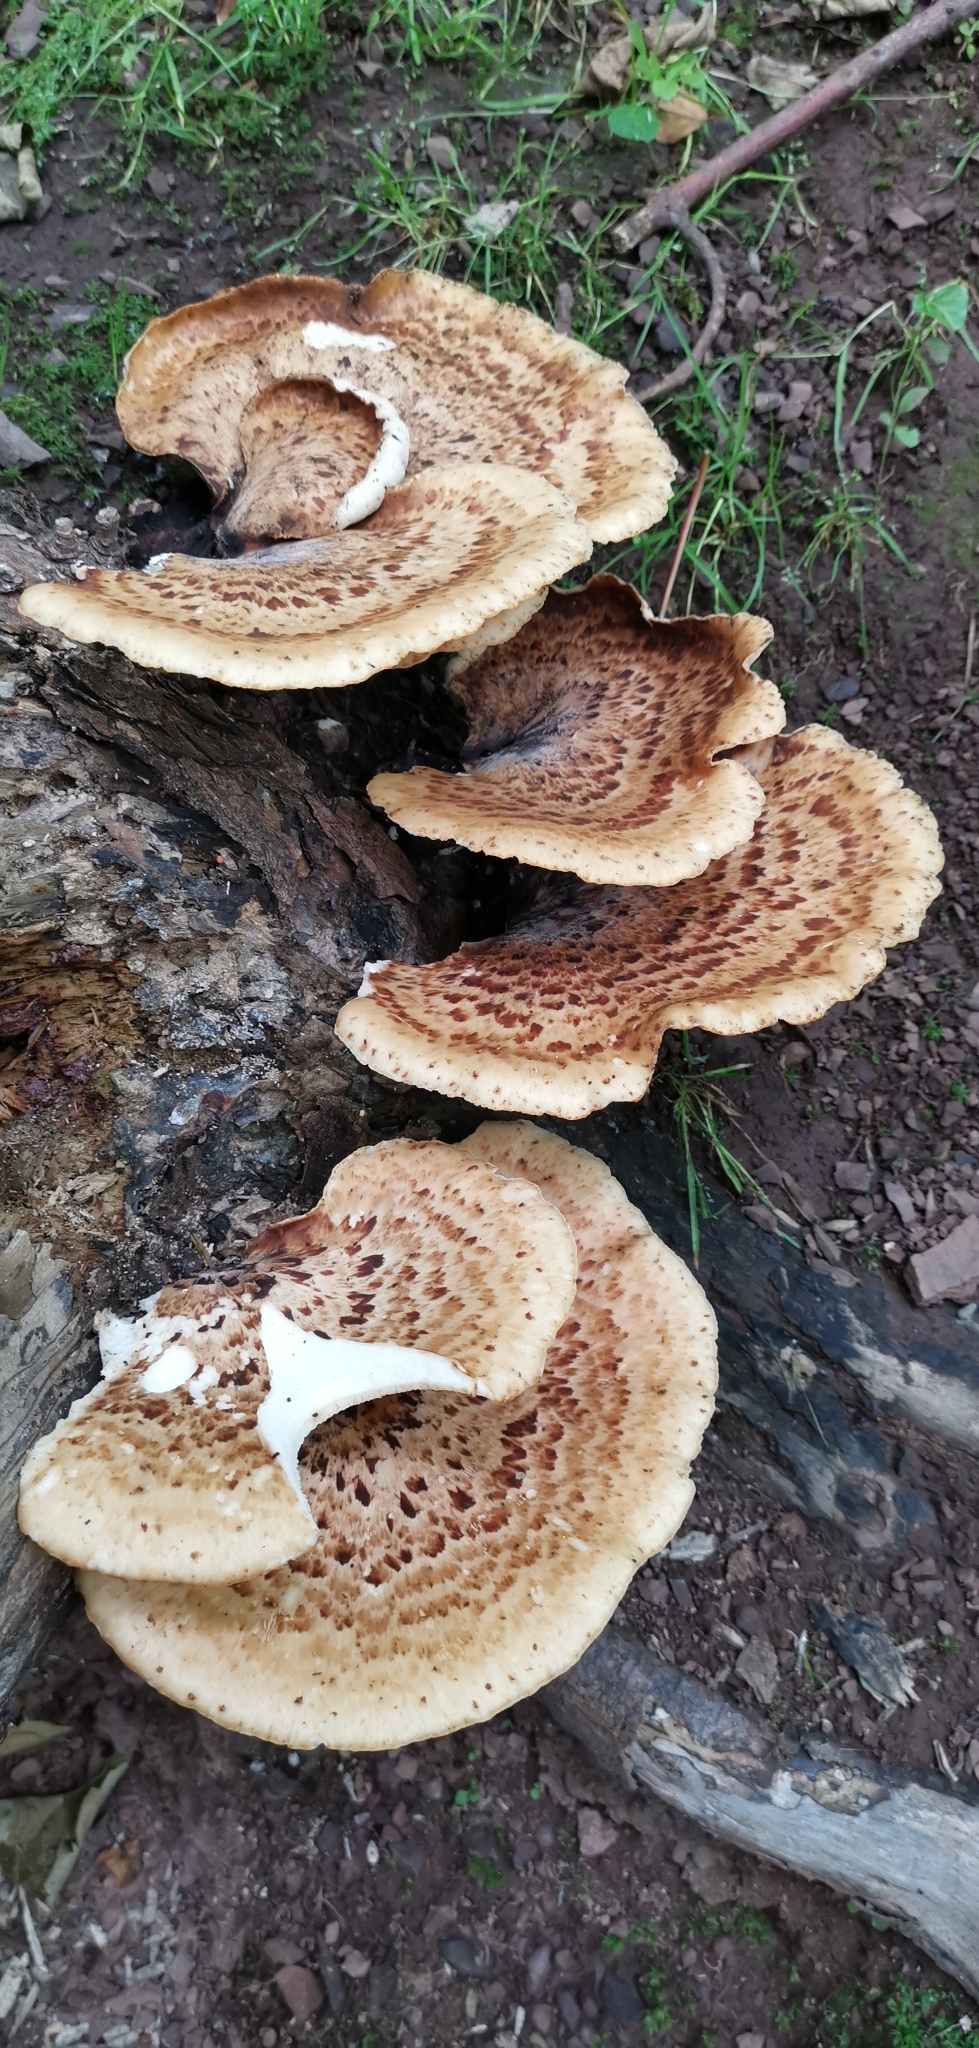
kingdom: Fungi
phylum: Basidiomycota
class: Agaricomycetes
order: Polyporales
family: Polyporaceae
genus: Cerioporus
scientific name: Cerioporus squamosus
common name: Dryad's saddle
